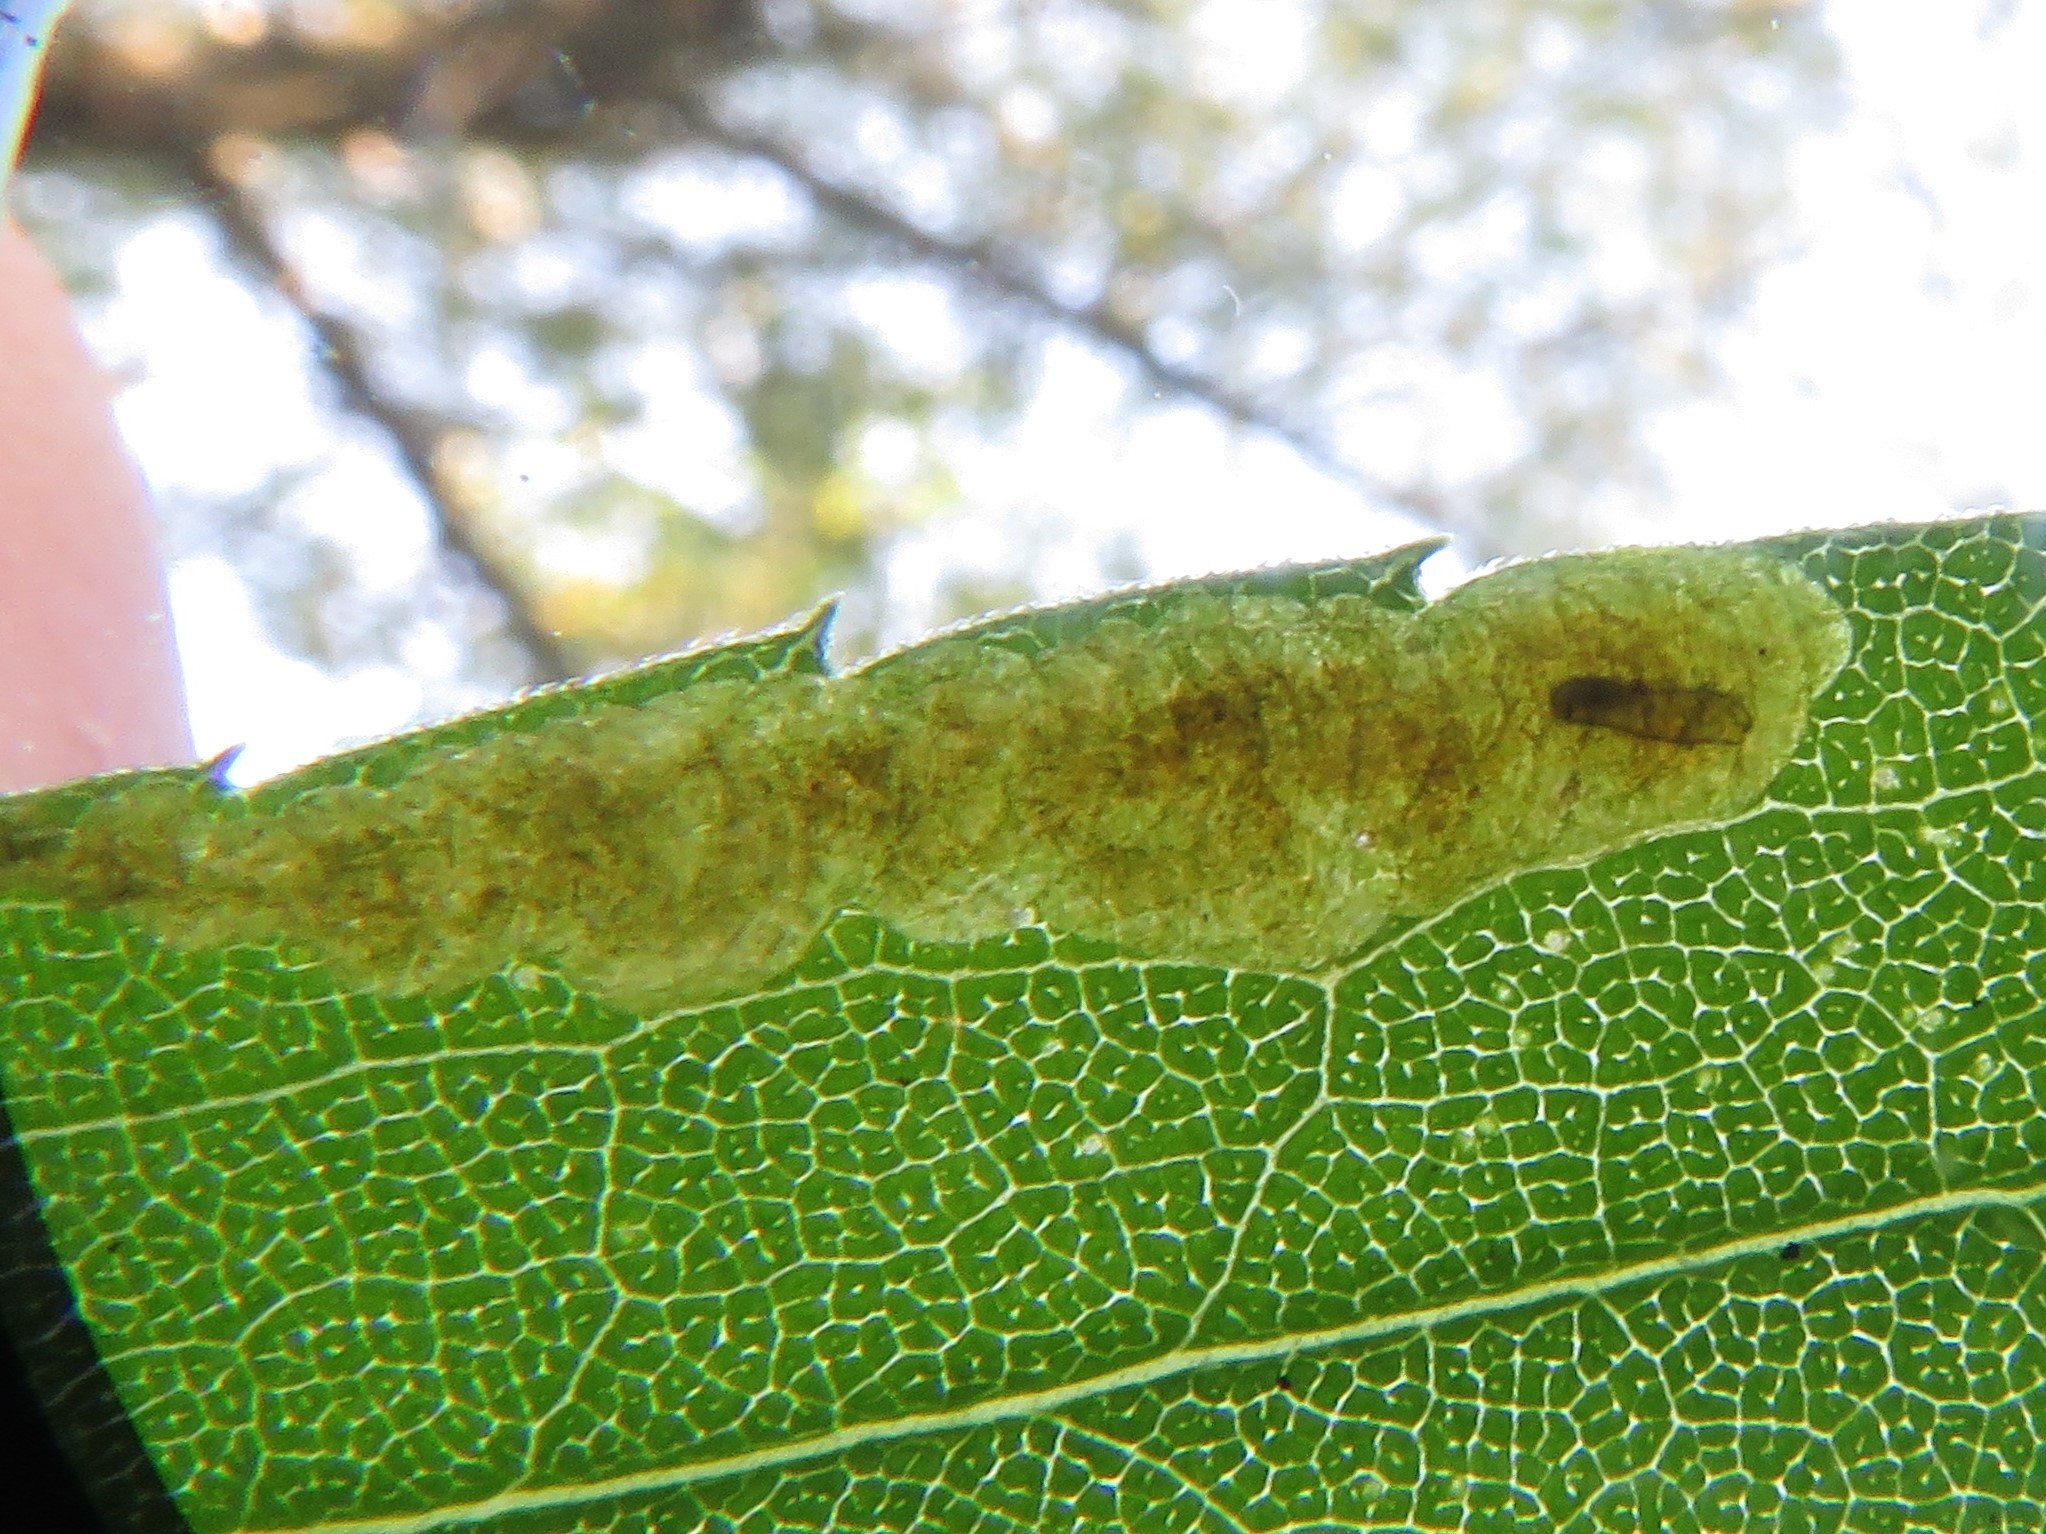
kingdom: Animalia
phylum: Arthropoda
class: Insecta
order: Diptera
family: Agromyzidae
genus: Nemorimyza
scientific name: Nemorimyza posticata
